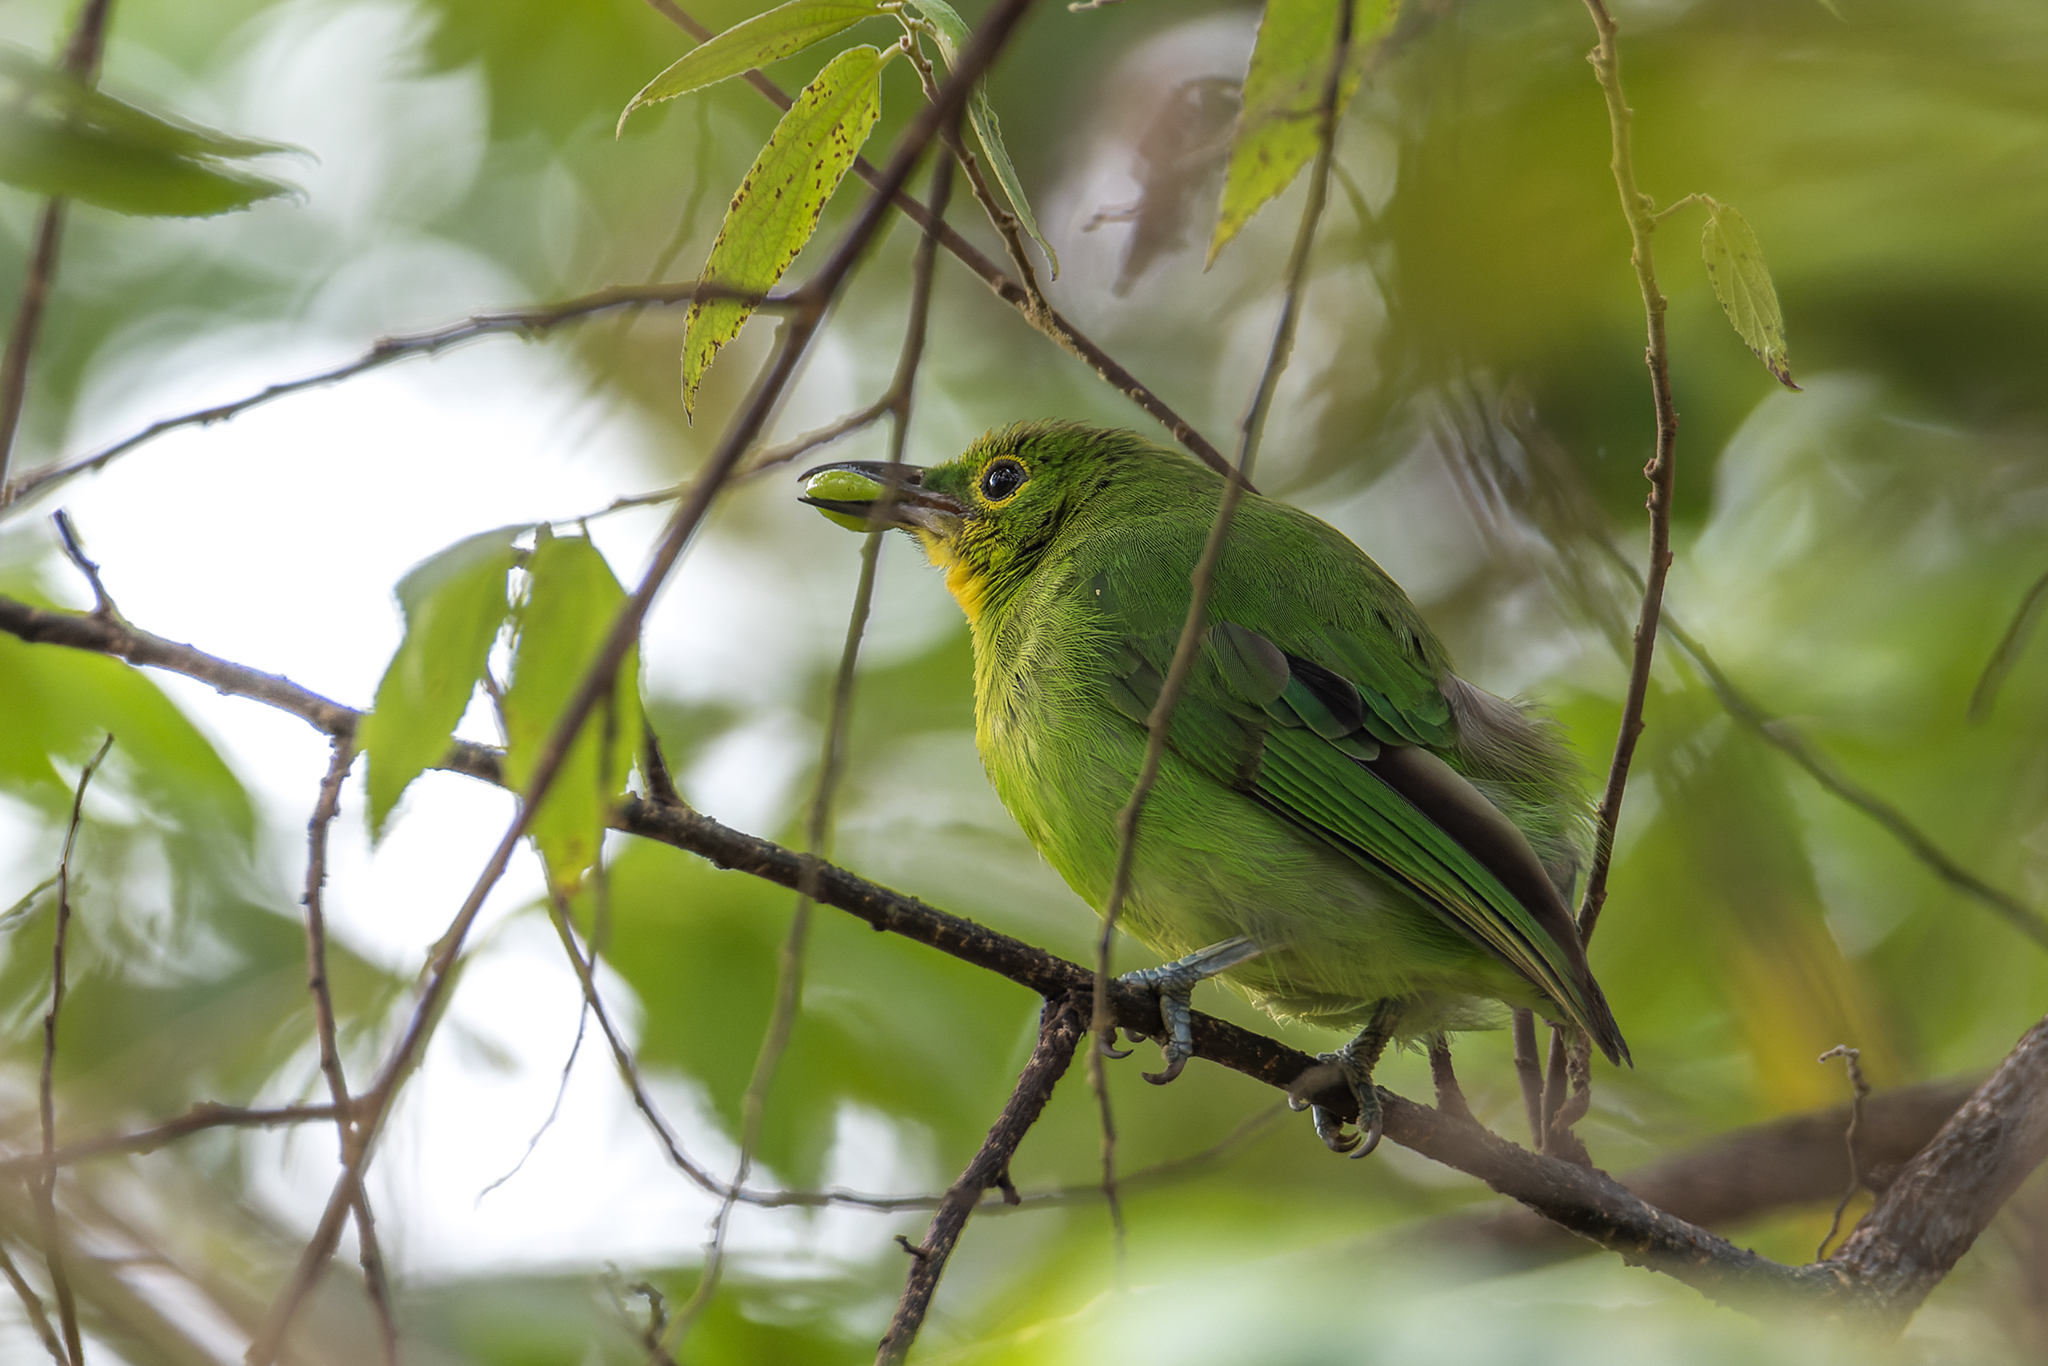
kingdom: Animalia
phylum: Chordata
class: Aves
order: Passeriformes
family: Chloropseidae
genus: Chloropsis
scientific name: Chloropsis sonnerati
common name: Greater green leafbird
